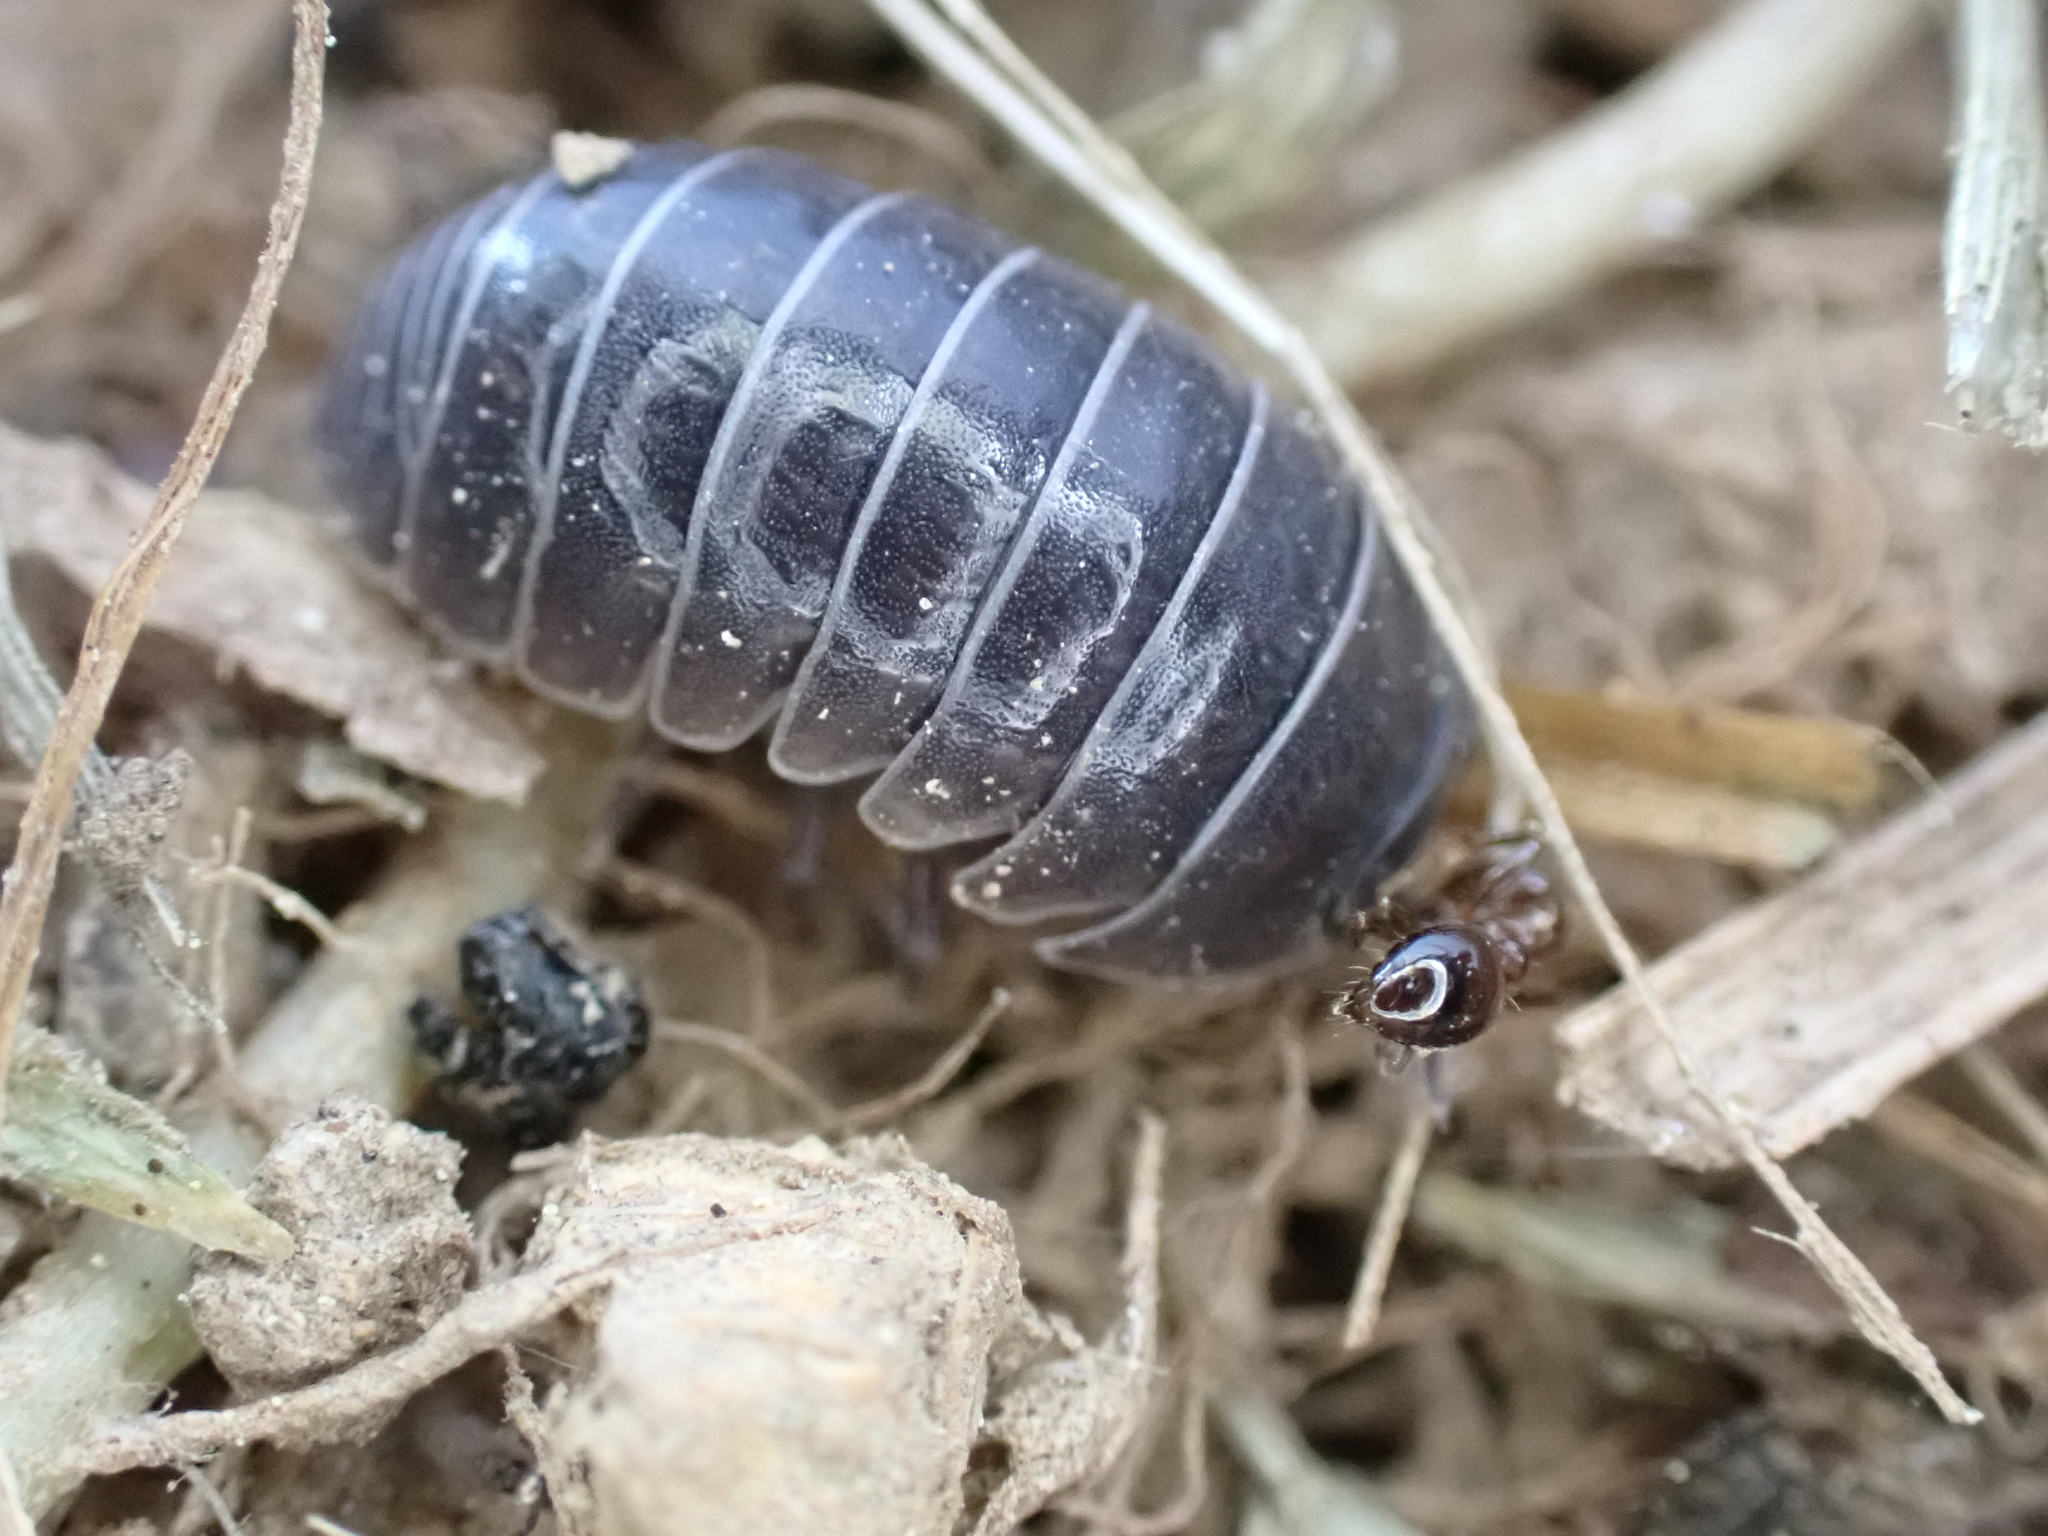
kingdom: Animalia
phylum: Arthropoda
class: Malacostraca
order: Isopoda
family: Armadillidiidae
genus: Armadillidium
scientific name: Armadillidium vulgare
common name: Common pill woodlouse
